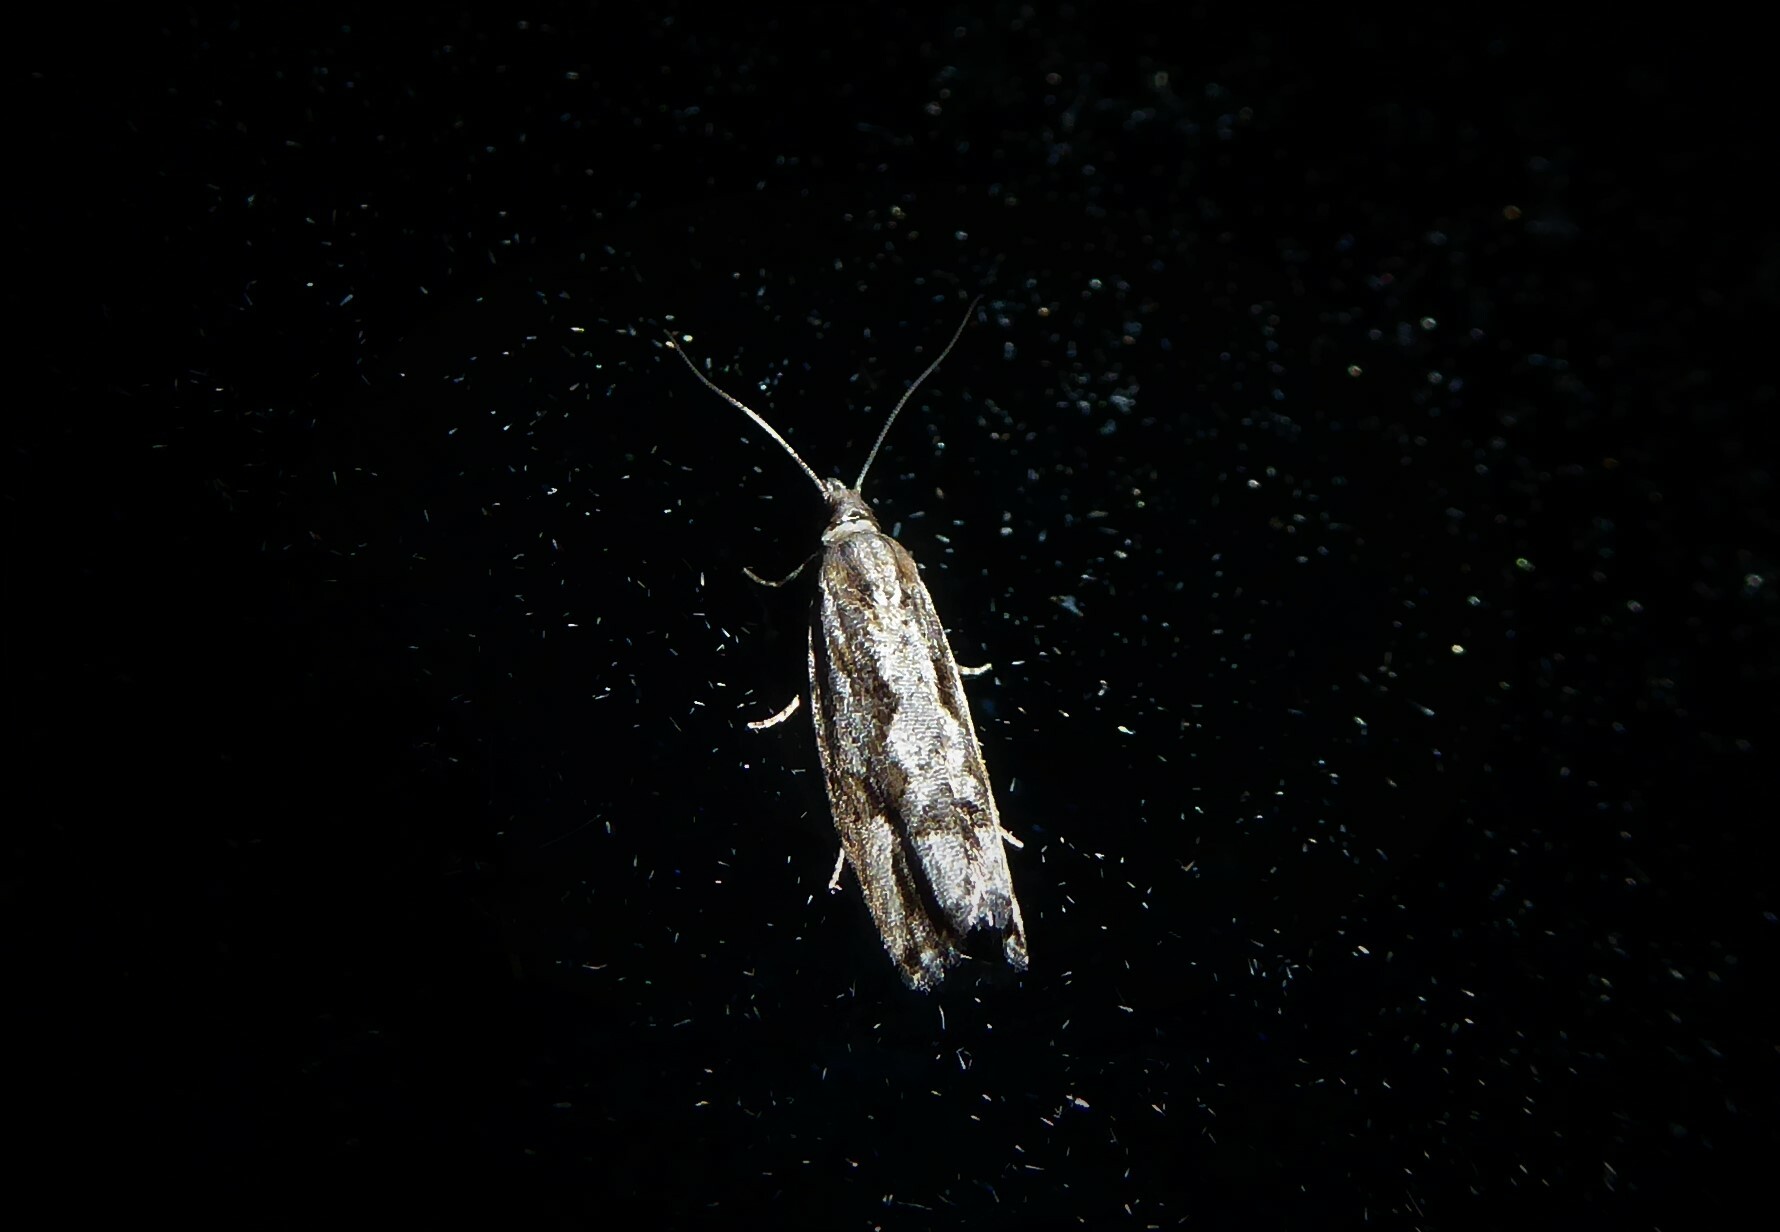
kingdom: Animalia
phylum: Arthropoda
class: Insecta
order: Lepidoptera
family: Tortricidae
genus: Strepsicrates
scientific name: Strepsicrates ejectana
